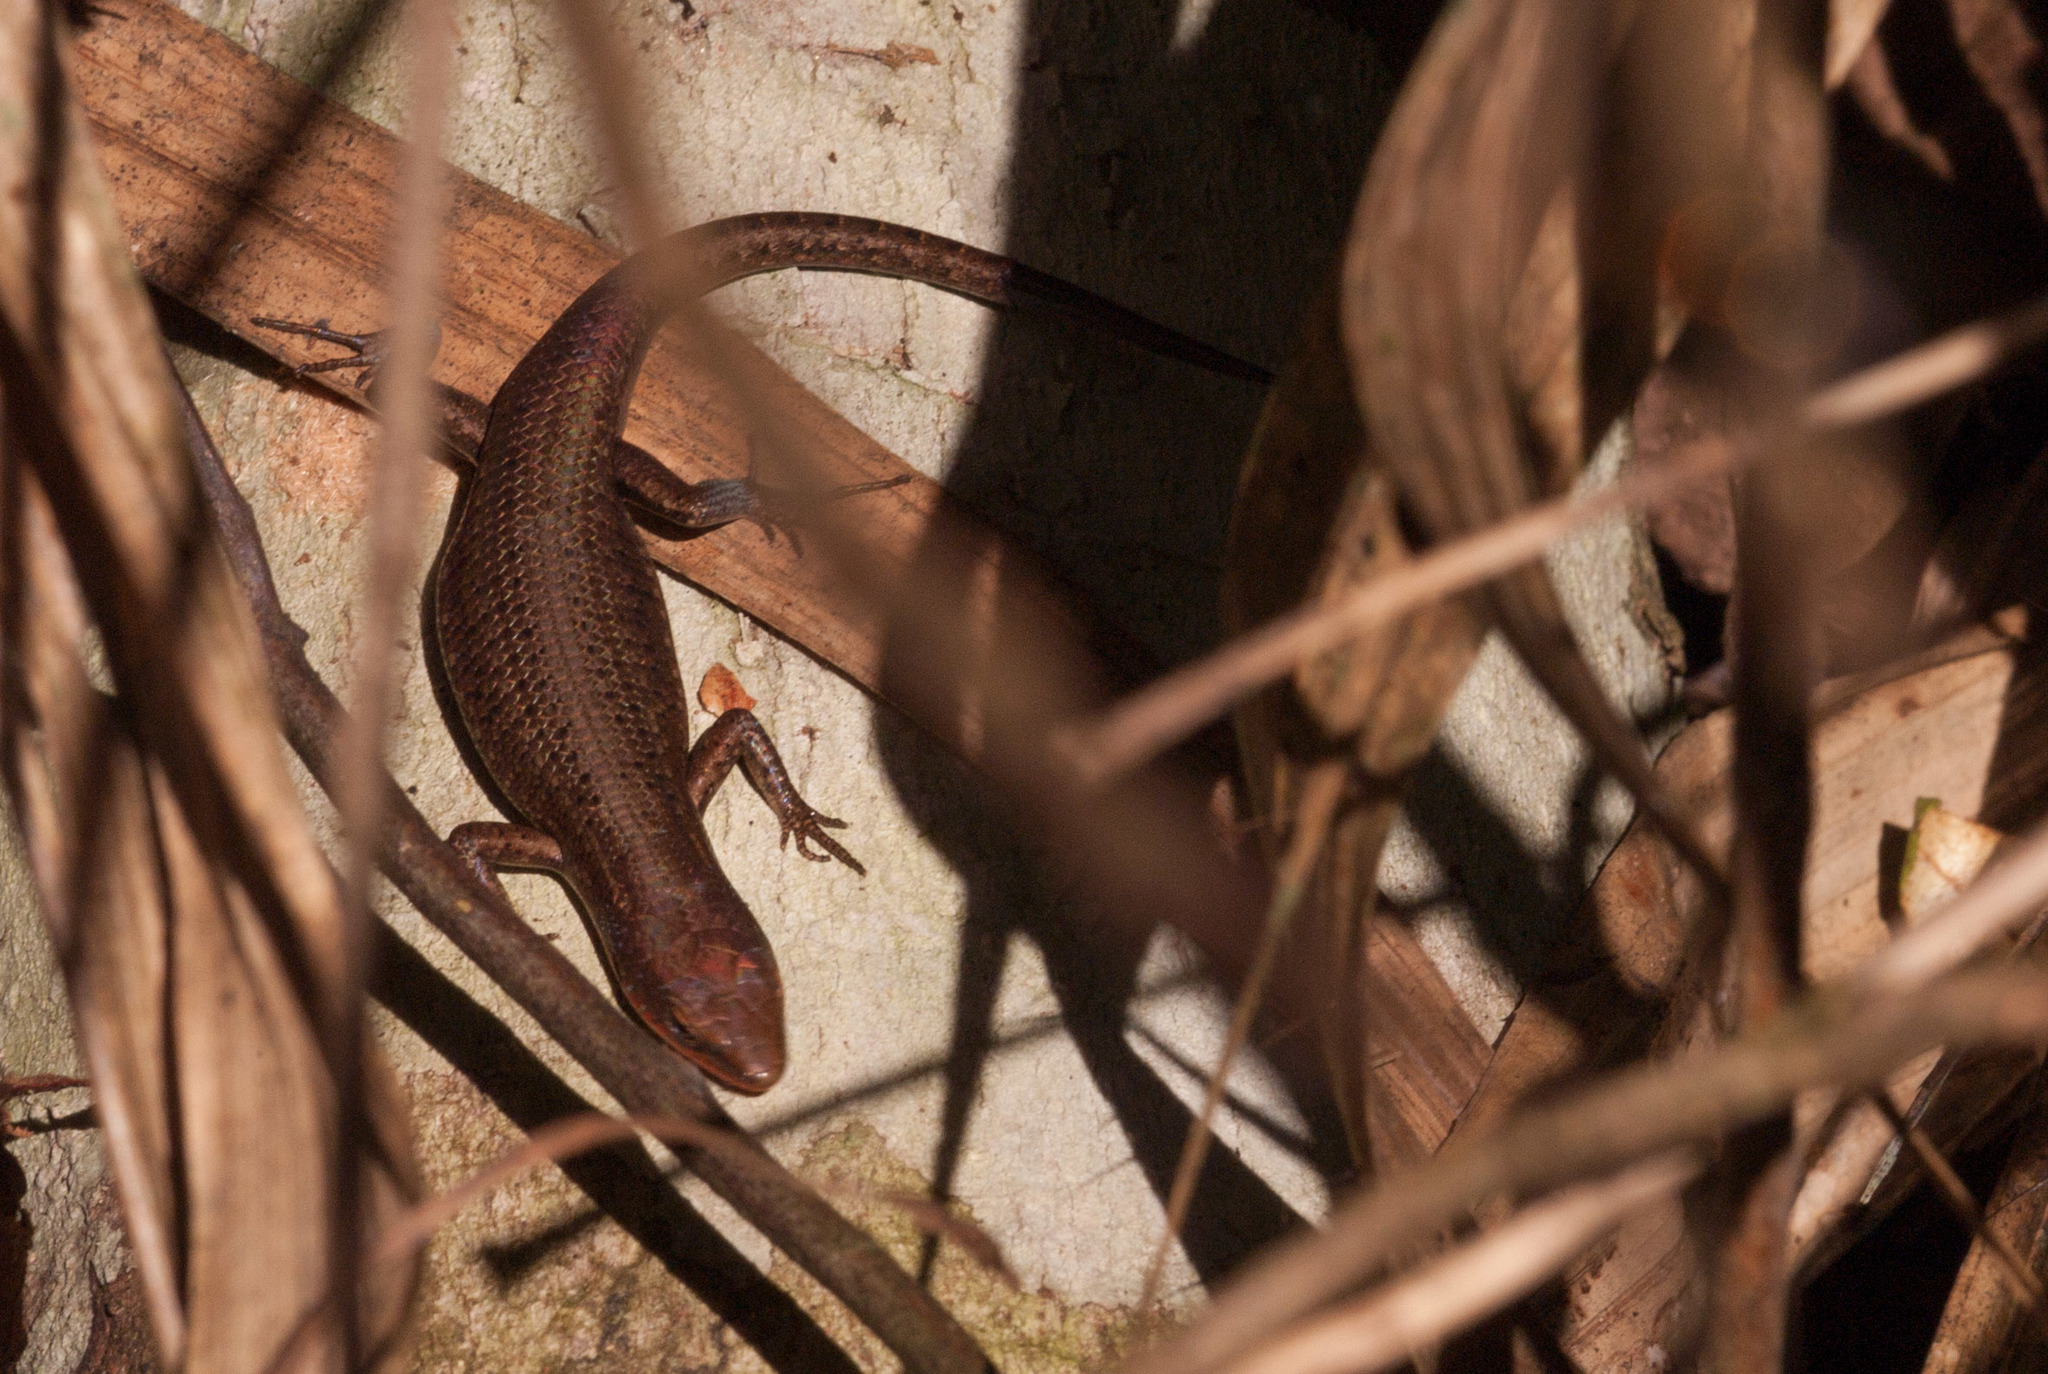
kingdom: Animalia
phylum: Chordata
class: Squamata
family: Scincidae
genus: Carlia
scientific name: Carlia crypta
